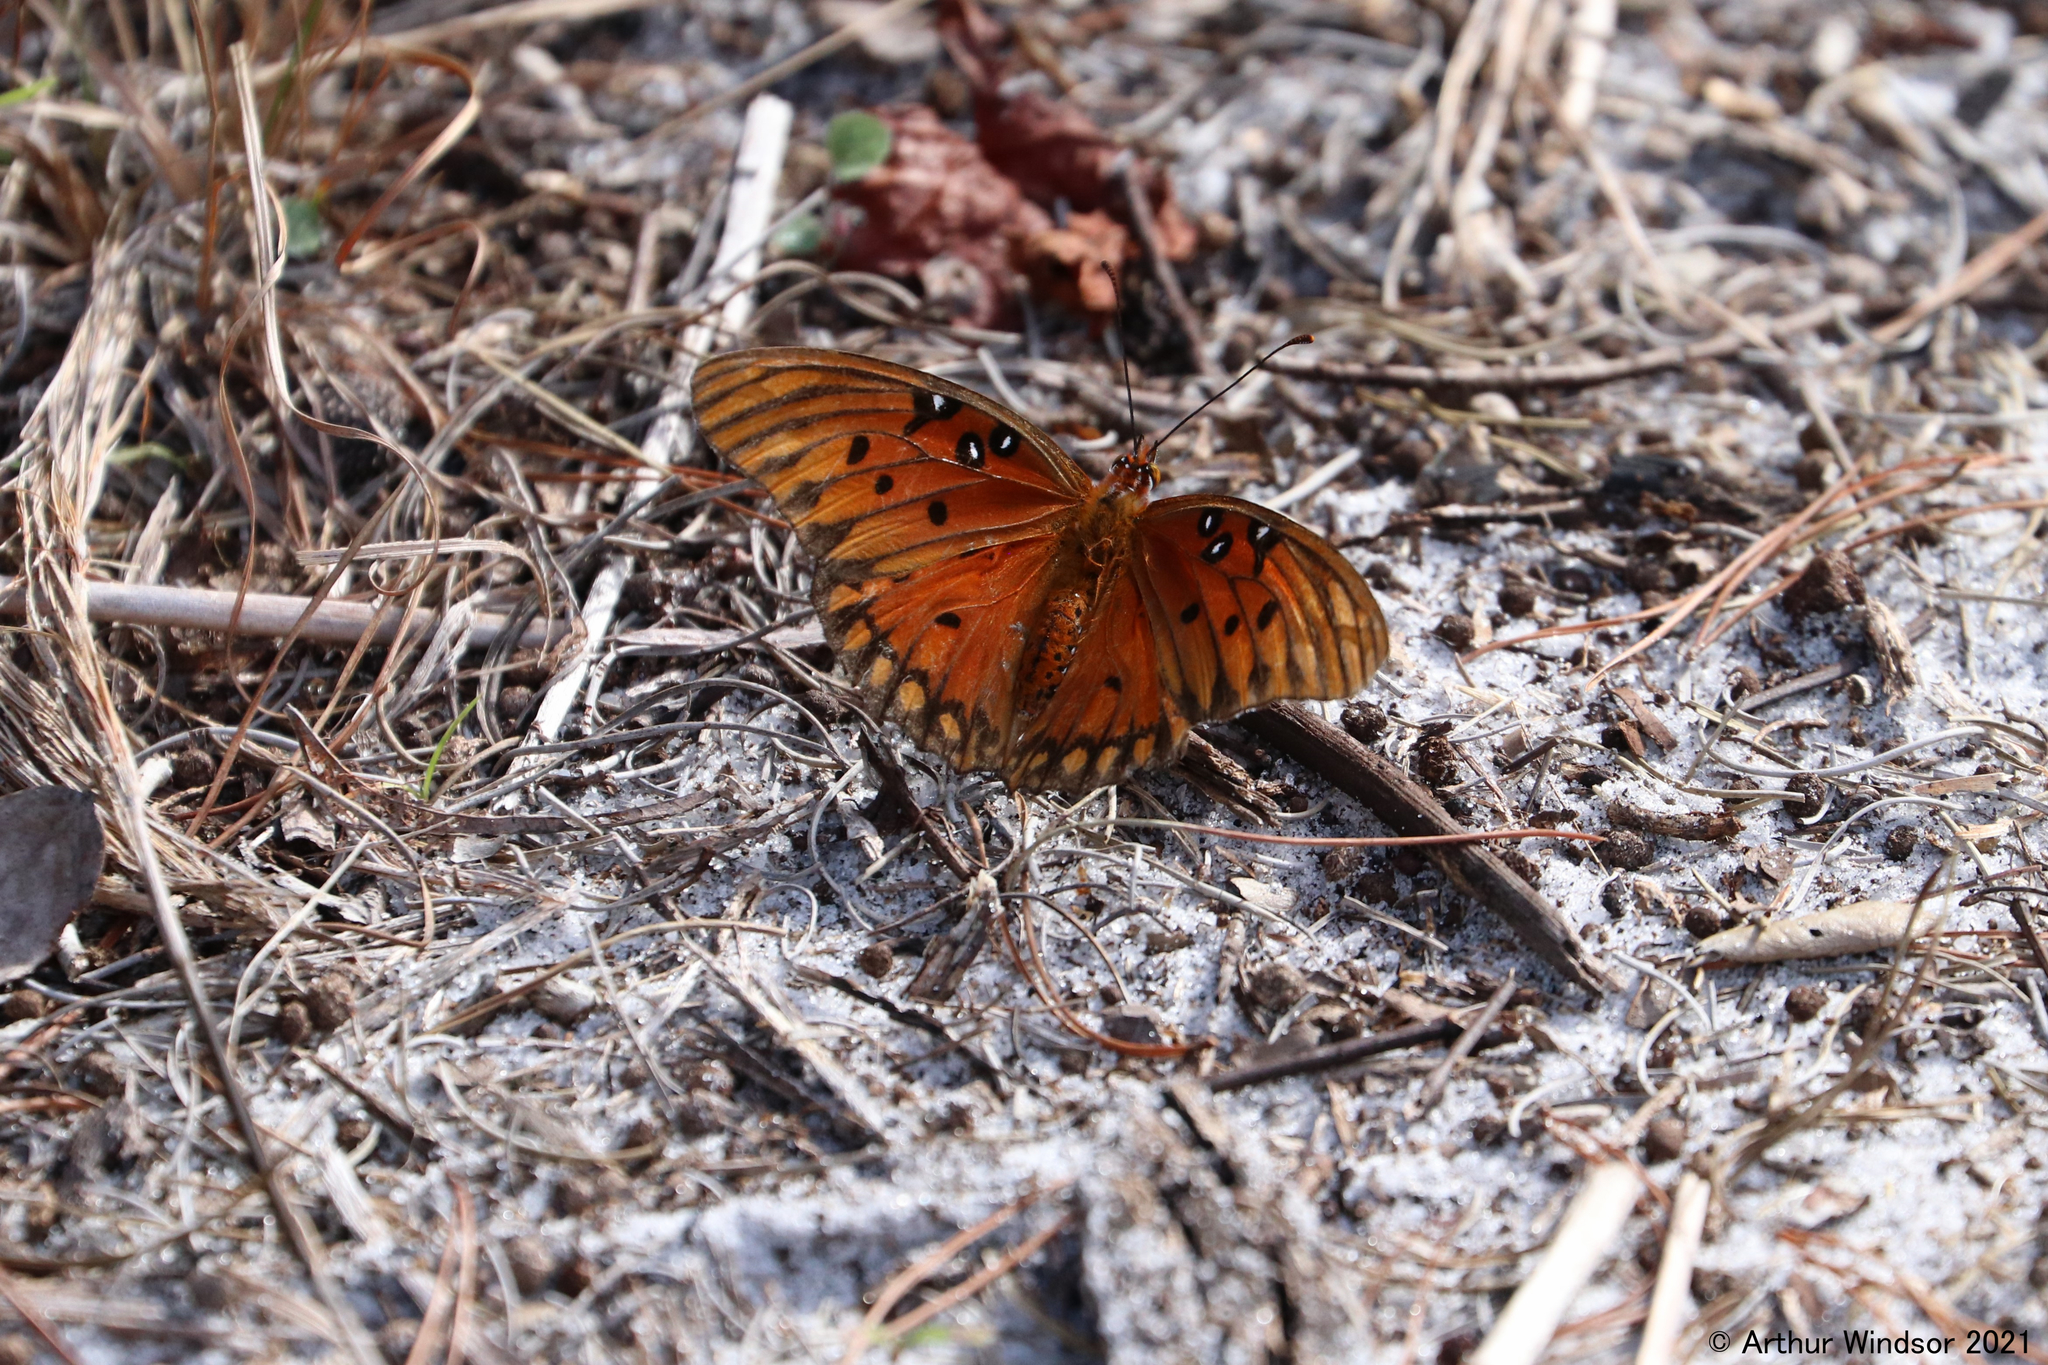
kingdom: Animalia
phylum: Arthropoda
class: Insecta
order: Lepidoptera
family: Nymphalidae
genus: Dione
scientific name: Dione vanillae
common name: Gulf fritillary
